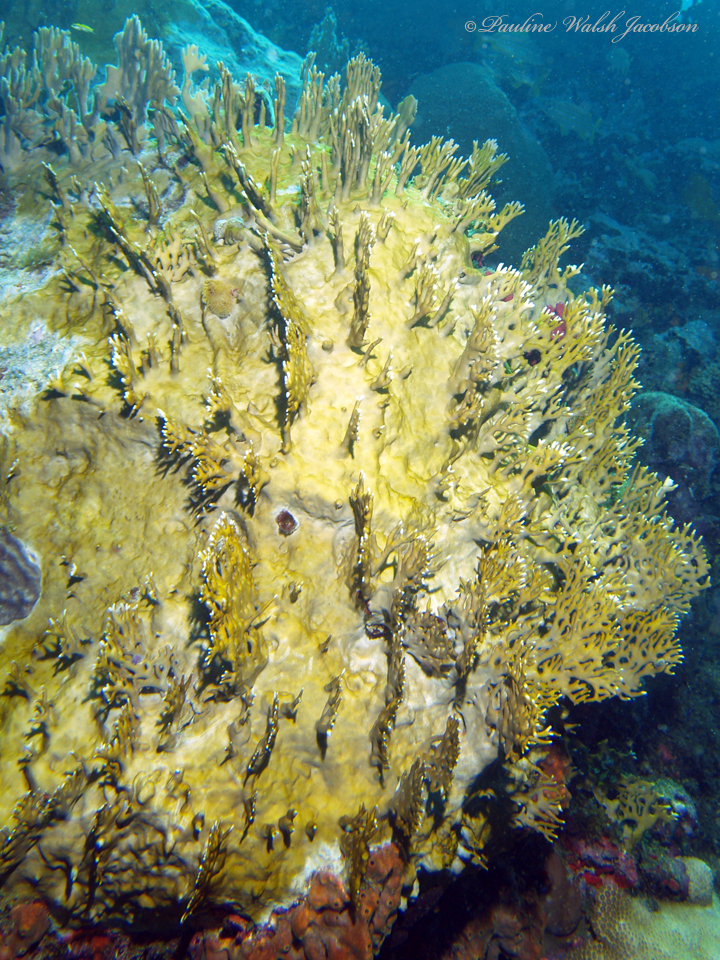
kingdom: Animalia
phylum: Cnidaria
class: Hydrozoa
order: Anthoathecata
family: Milleporidae
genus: Millepora
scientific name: Millepora alcicornis
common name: Branching fire coral
